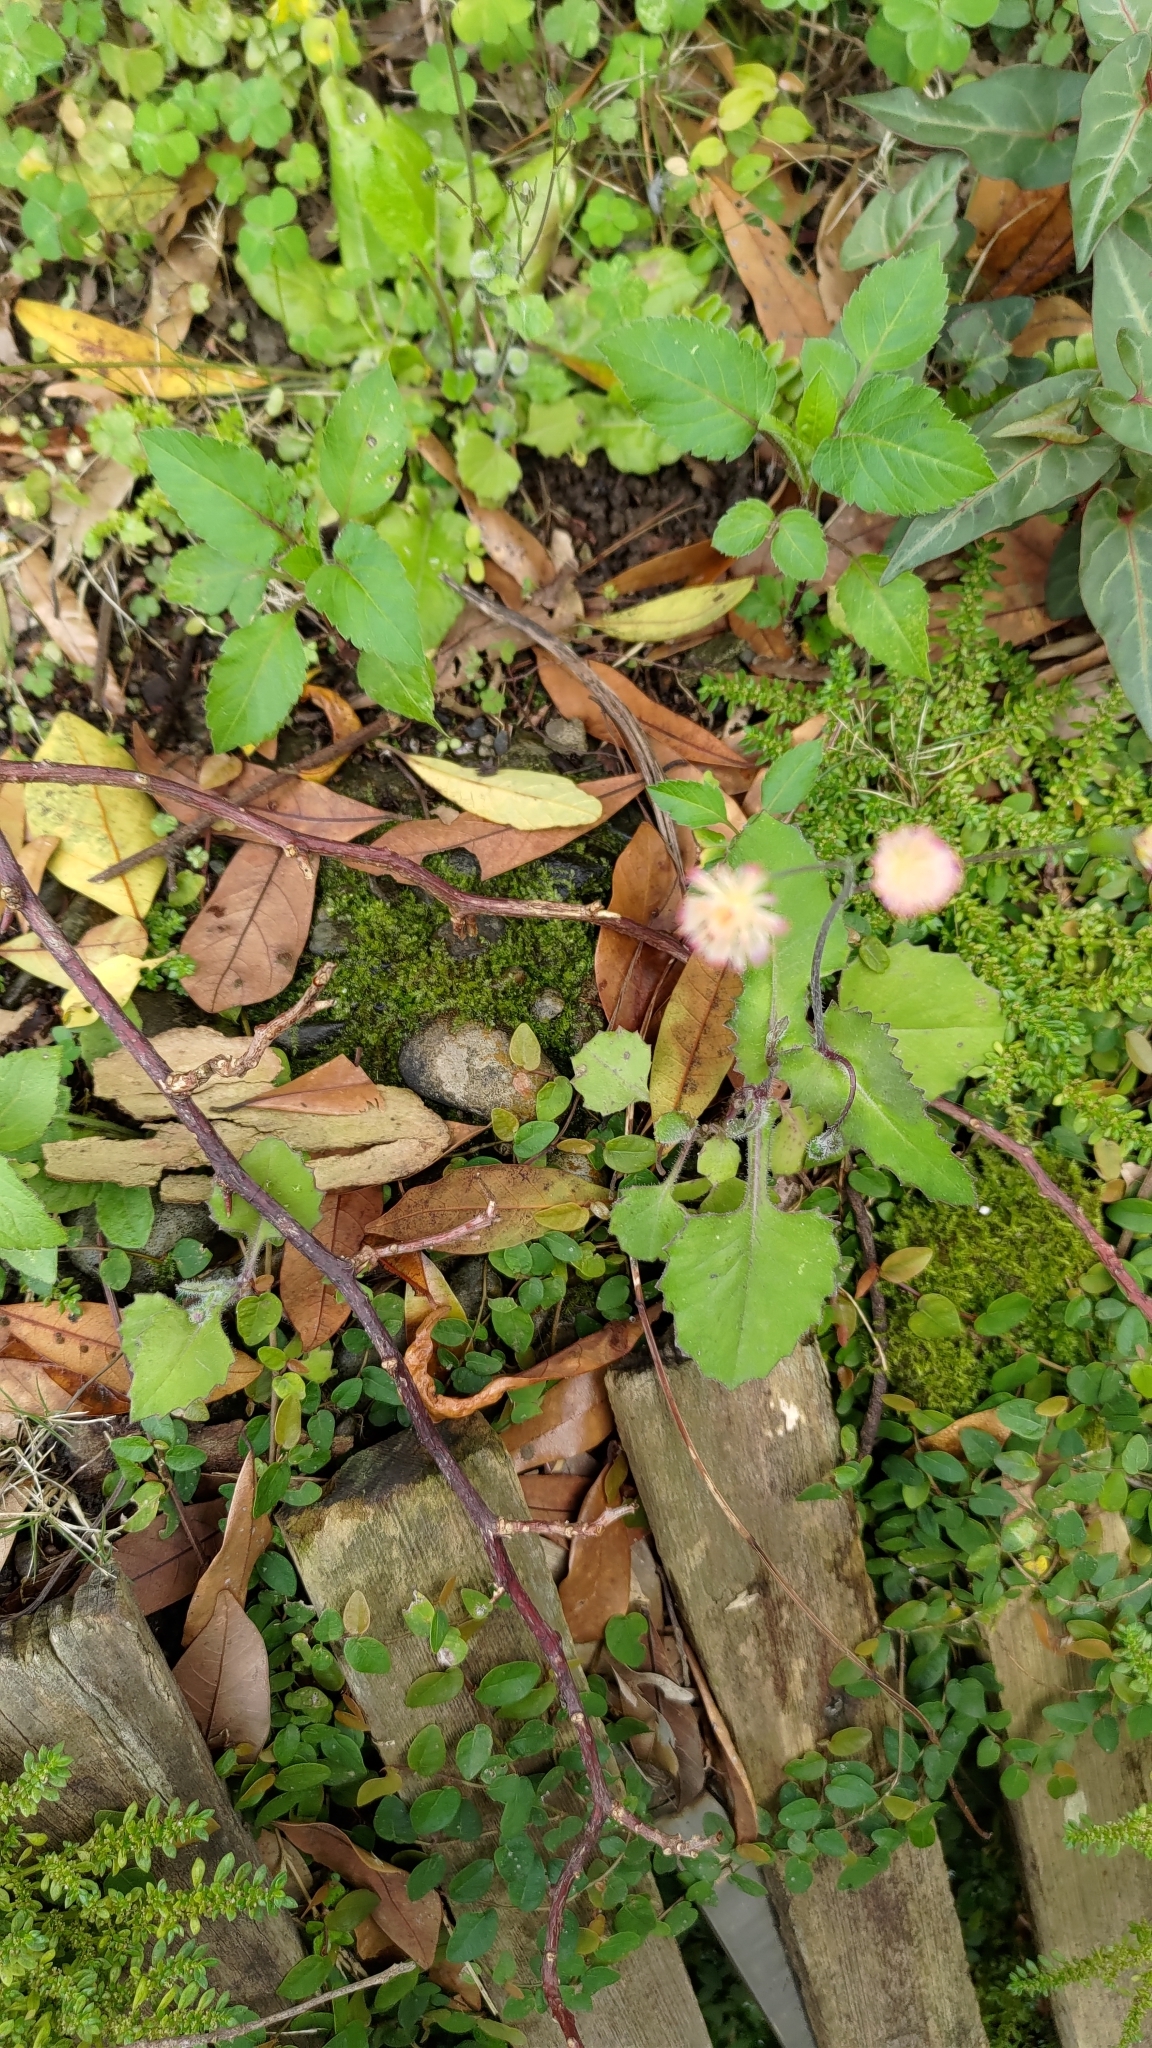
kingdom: Plantae
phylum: Tracheophyta
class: Magnoliopsida
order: Asterales
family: Asteraceae
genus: Emilia
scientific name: Emilia praetermissa
